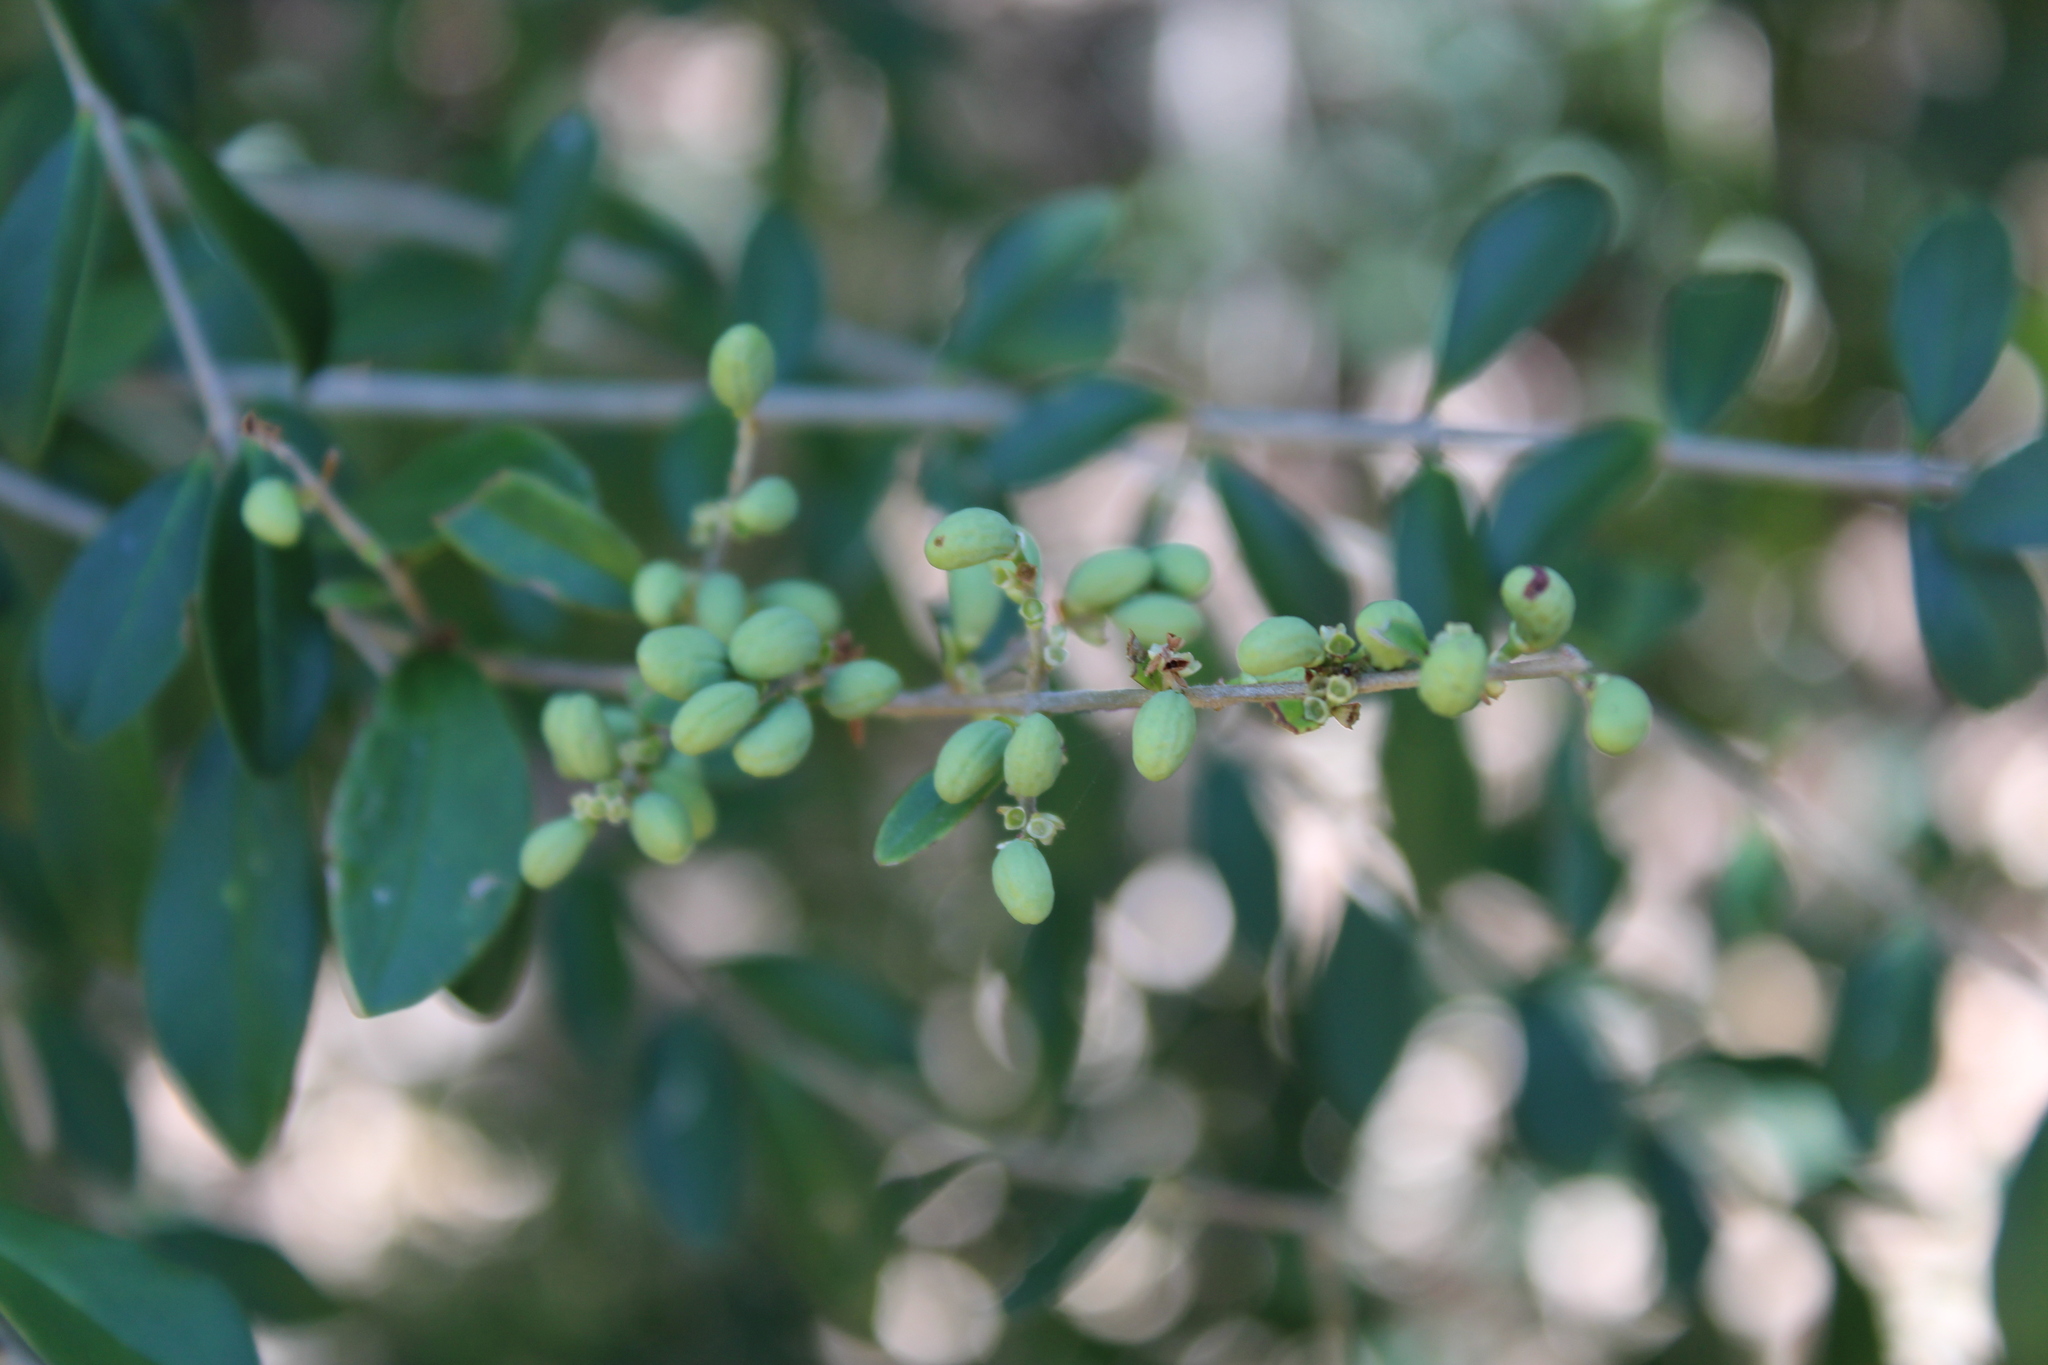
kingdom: Plantae
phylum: Tracheophyta
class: Magnoliopsida
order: Lamiales
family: Oleaceae
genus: Ligustrum
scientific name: Ligustrum quihoui
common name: Waxyleaf privet
